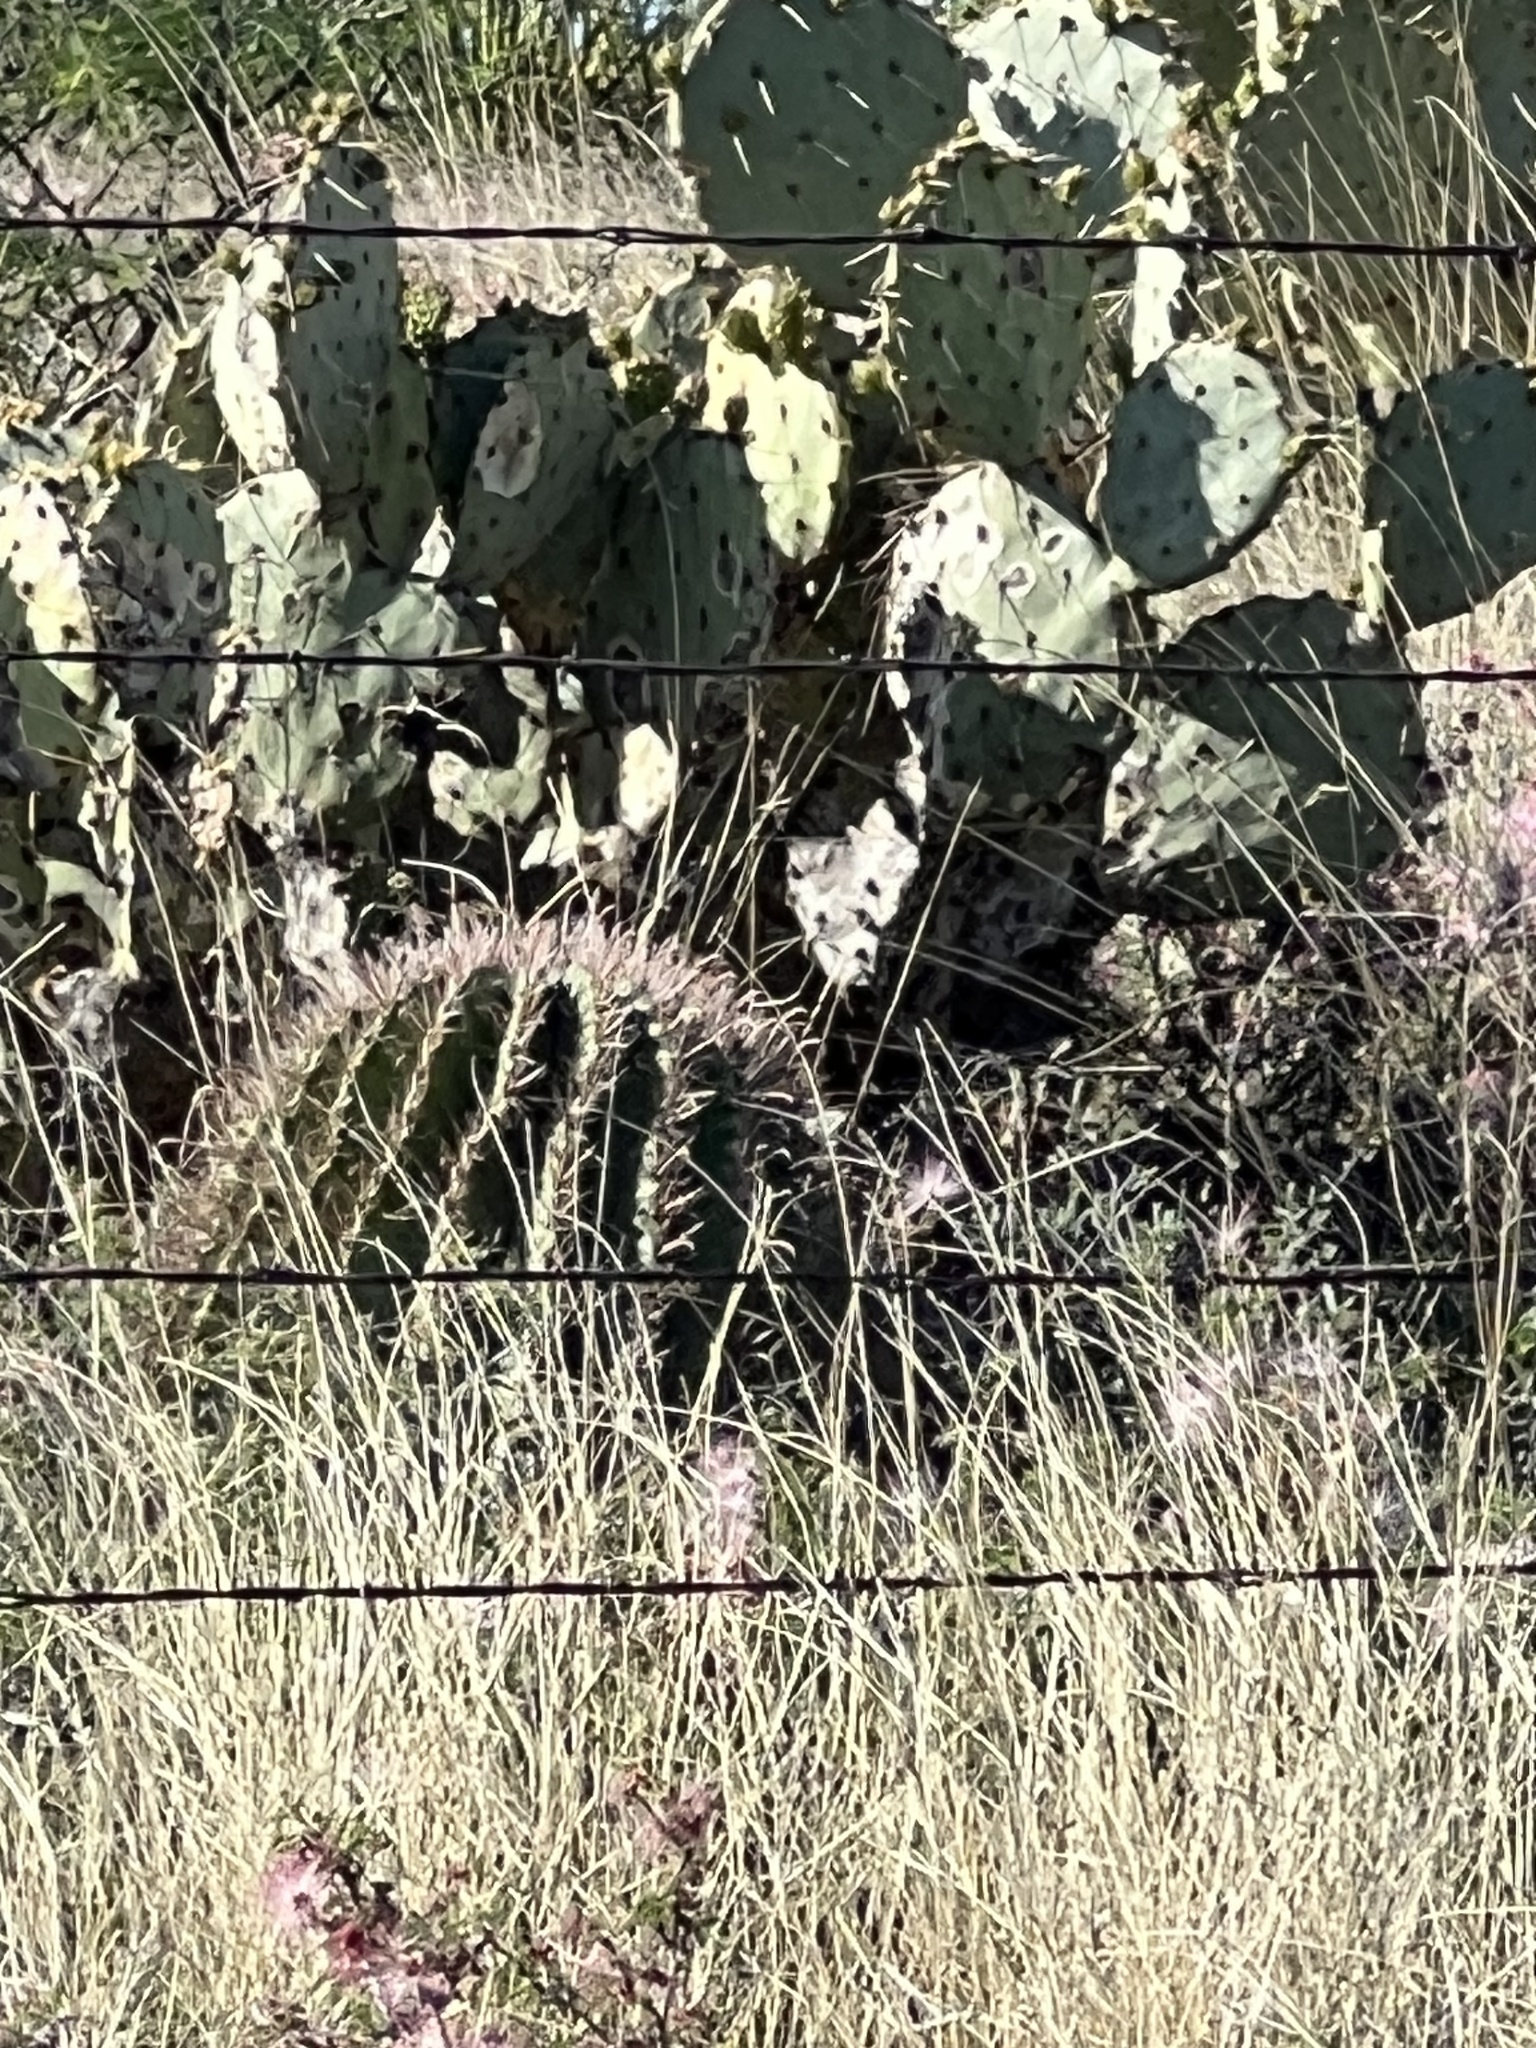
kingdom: Plantae
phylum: Tracheophyta
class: Magnoliopsida
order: Caryophyllales
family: Cactaceae
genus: Ferocactus
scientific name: Ferocactus wislizeni
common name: Candy barrel cactus
